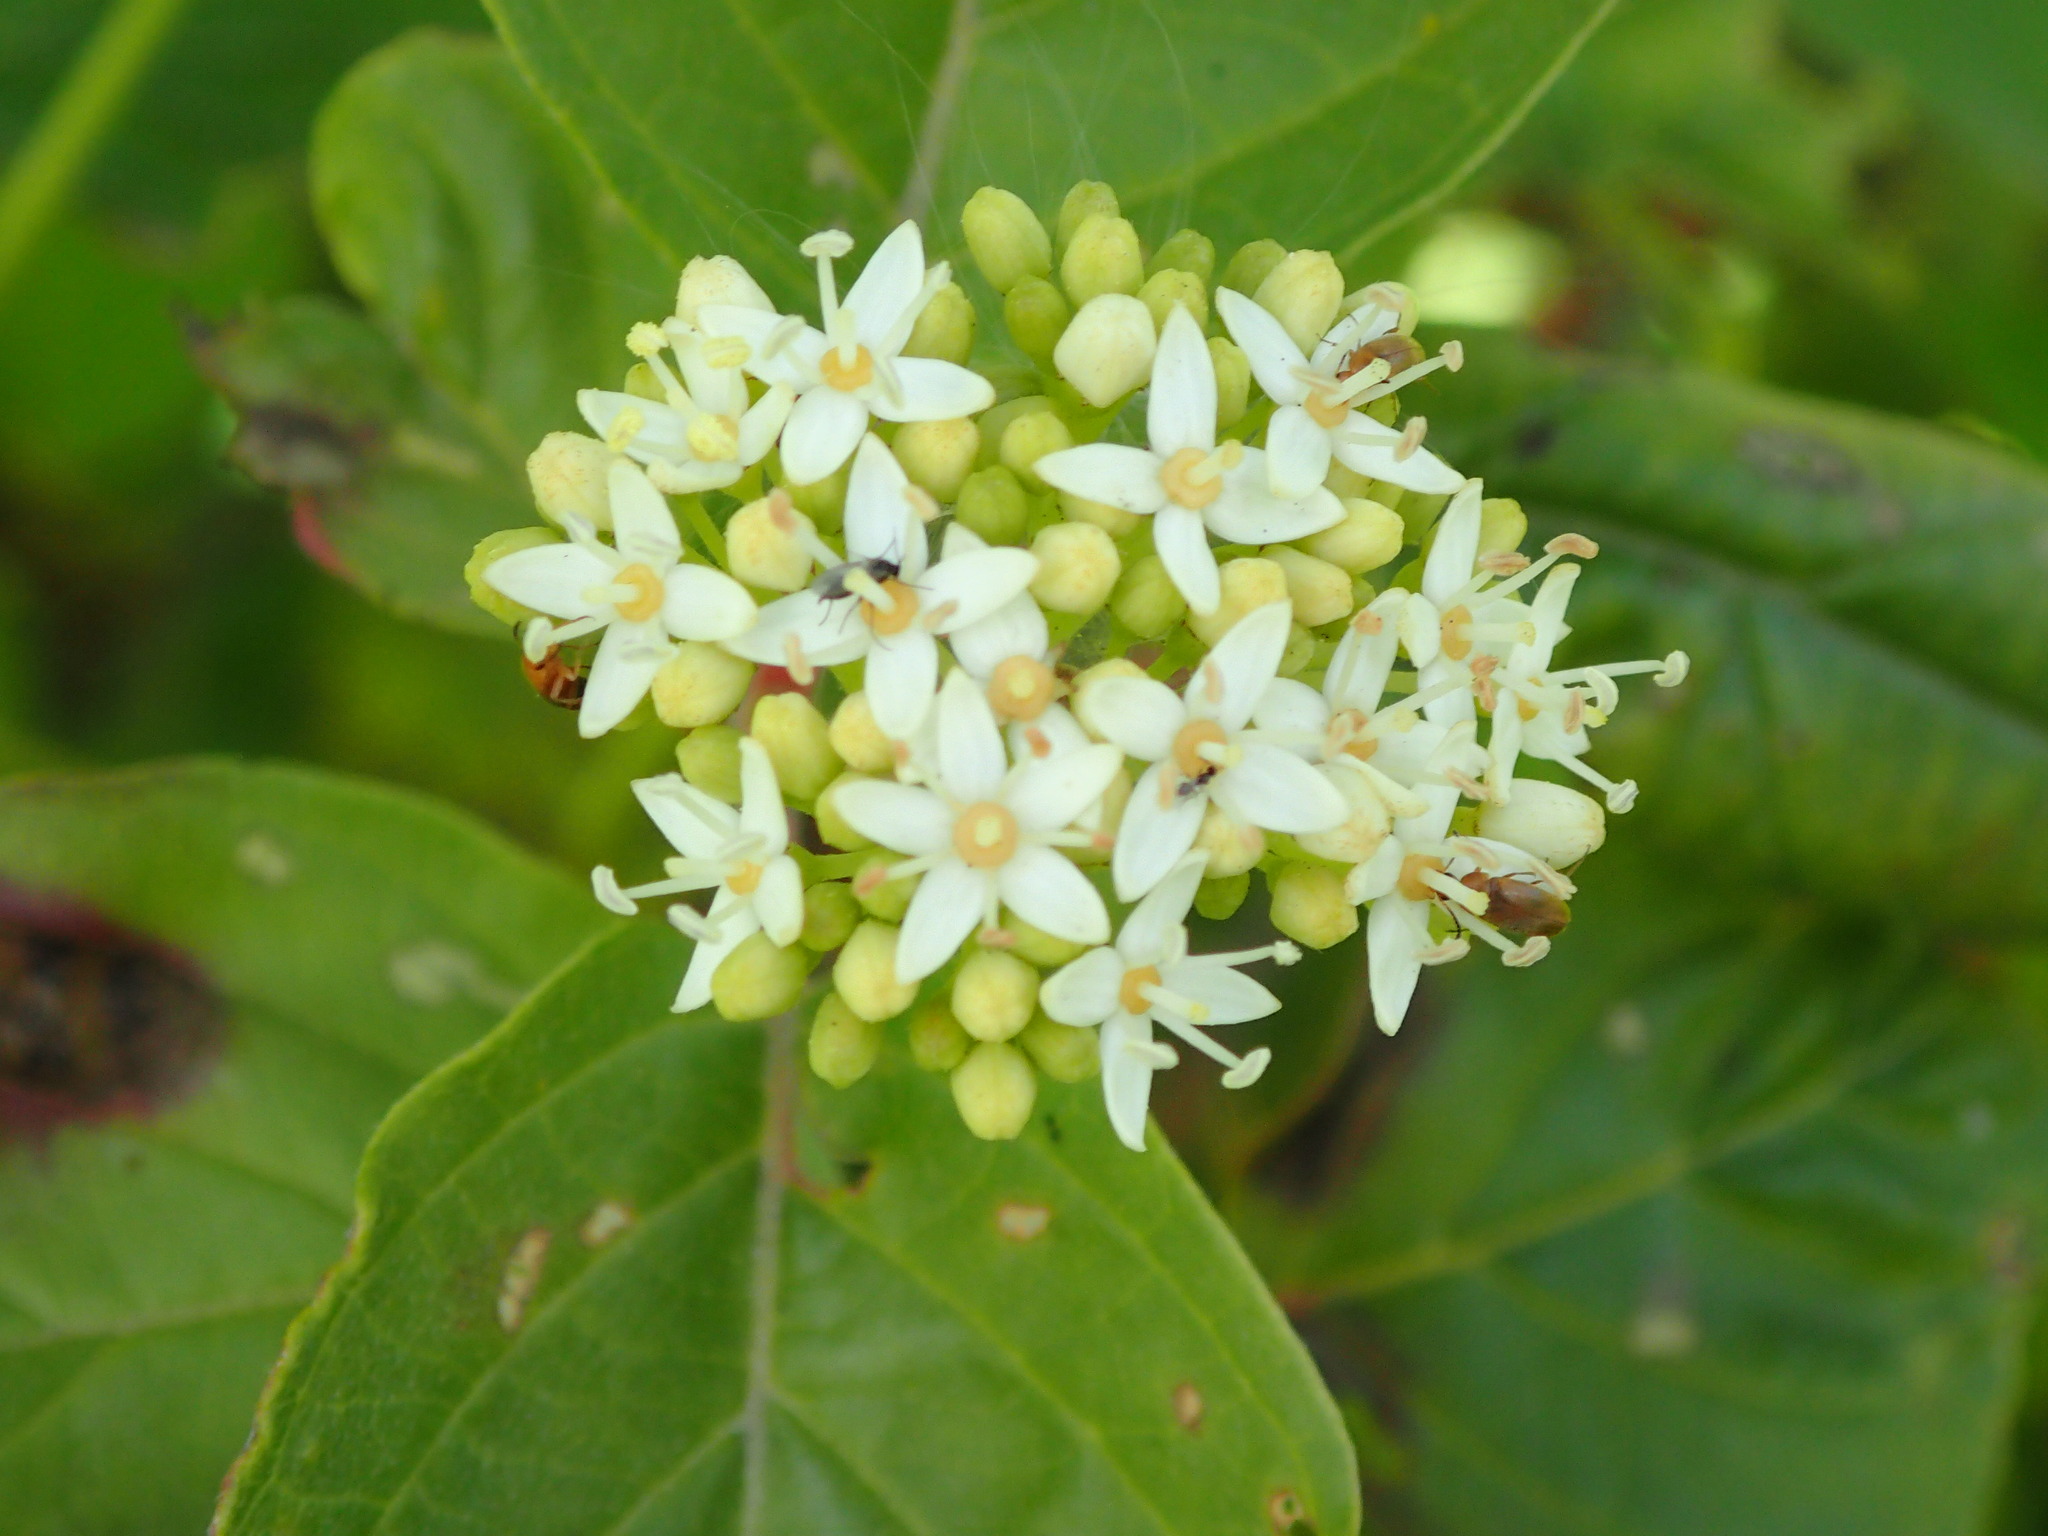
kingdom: Plantae
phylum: Tracheophyta
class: Magnoliopsida
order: Cornales
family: Cornaceae
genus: Cornus
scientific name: Cornus sericea
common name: Red-osier dogwood
